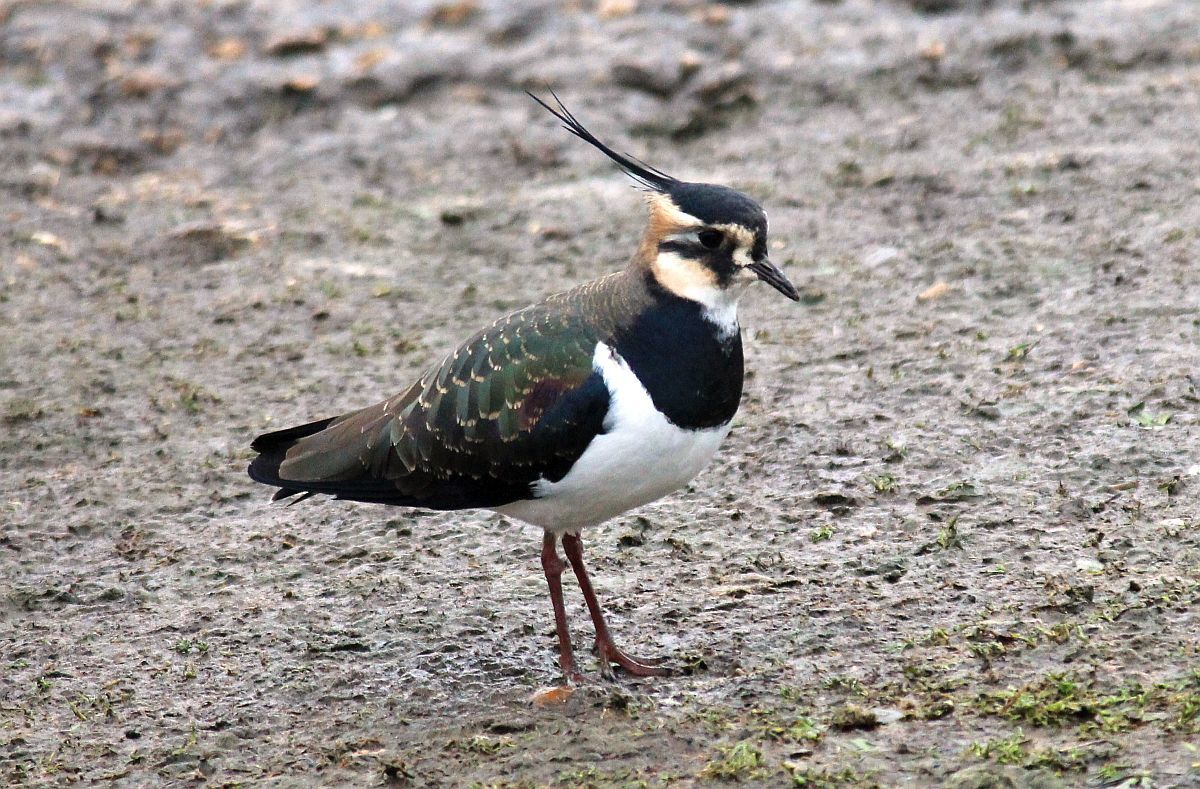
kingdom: Animalia
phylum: Chordata
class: Aves
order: Charadriiformes
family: Charadriidae
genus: Vanellus
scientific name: Vanellus vanellus
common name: Northern lapwing
